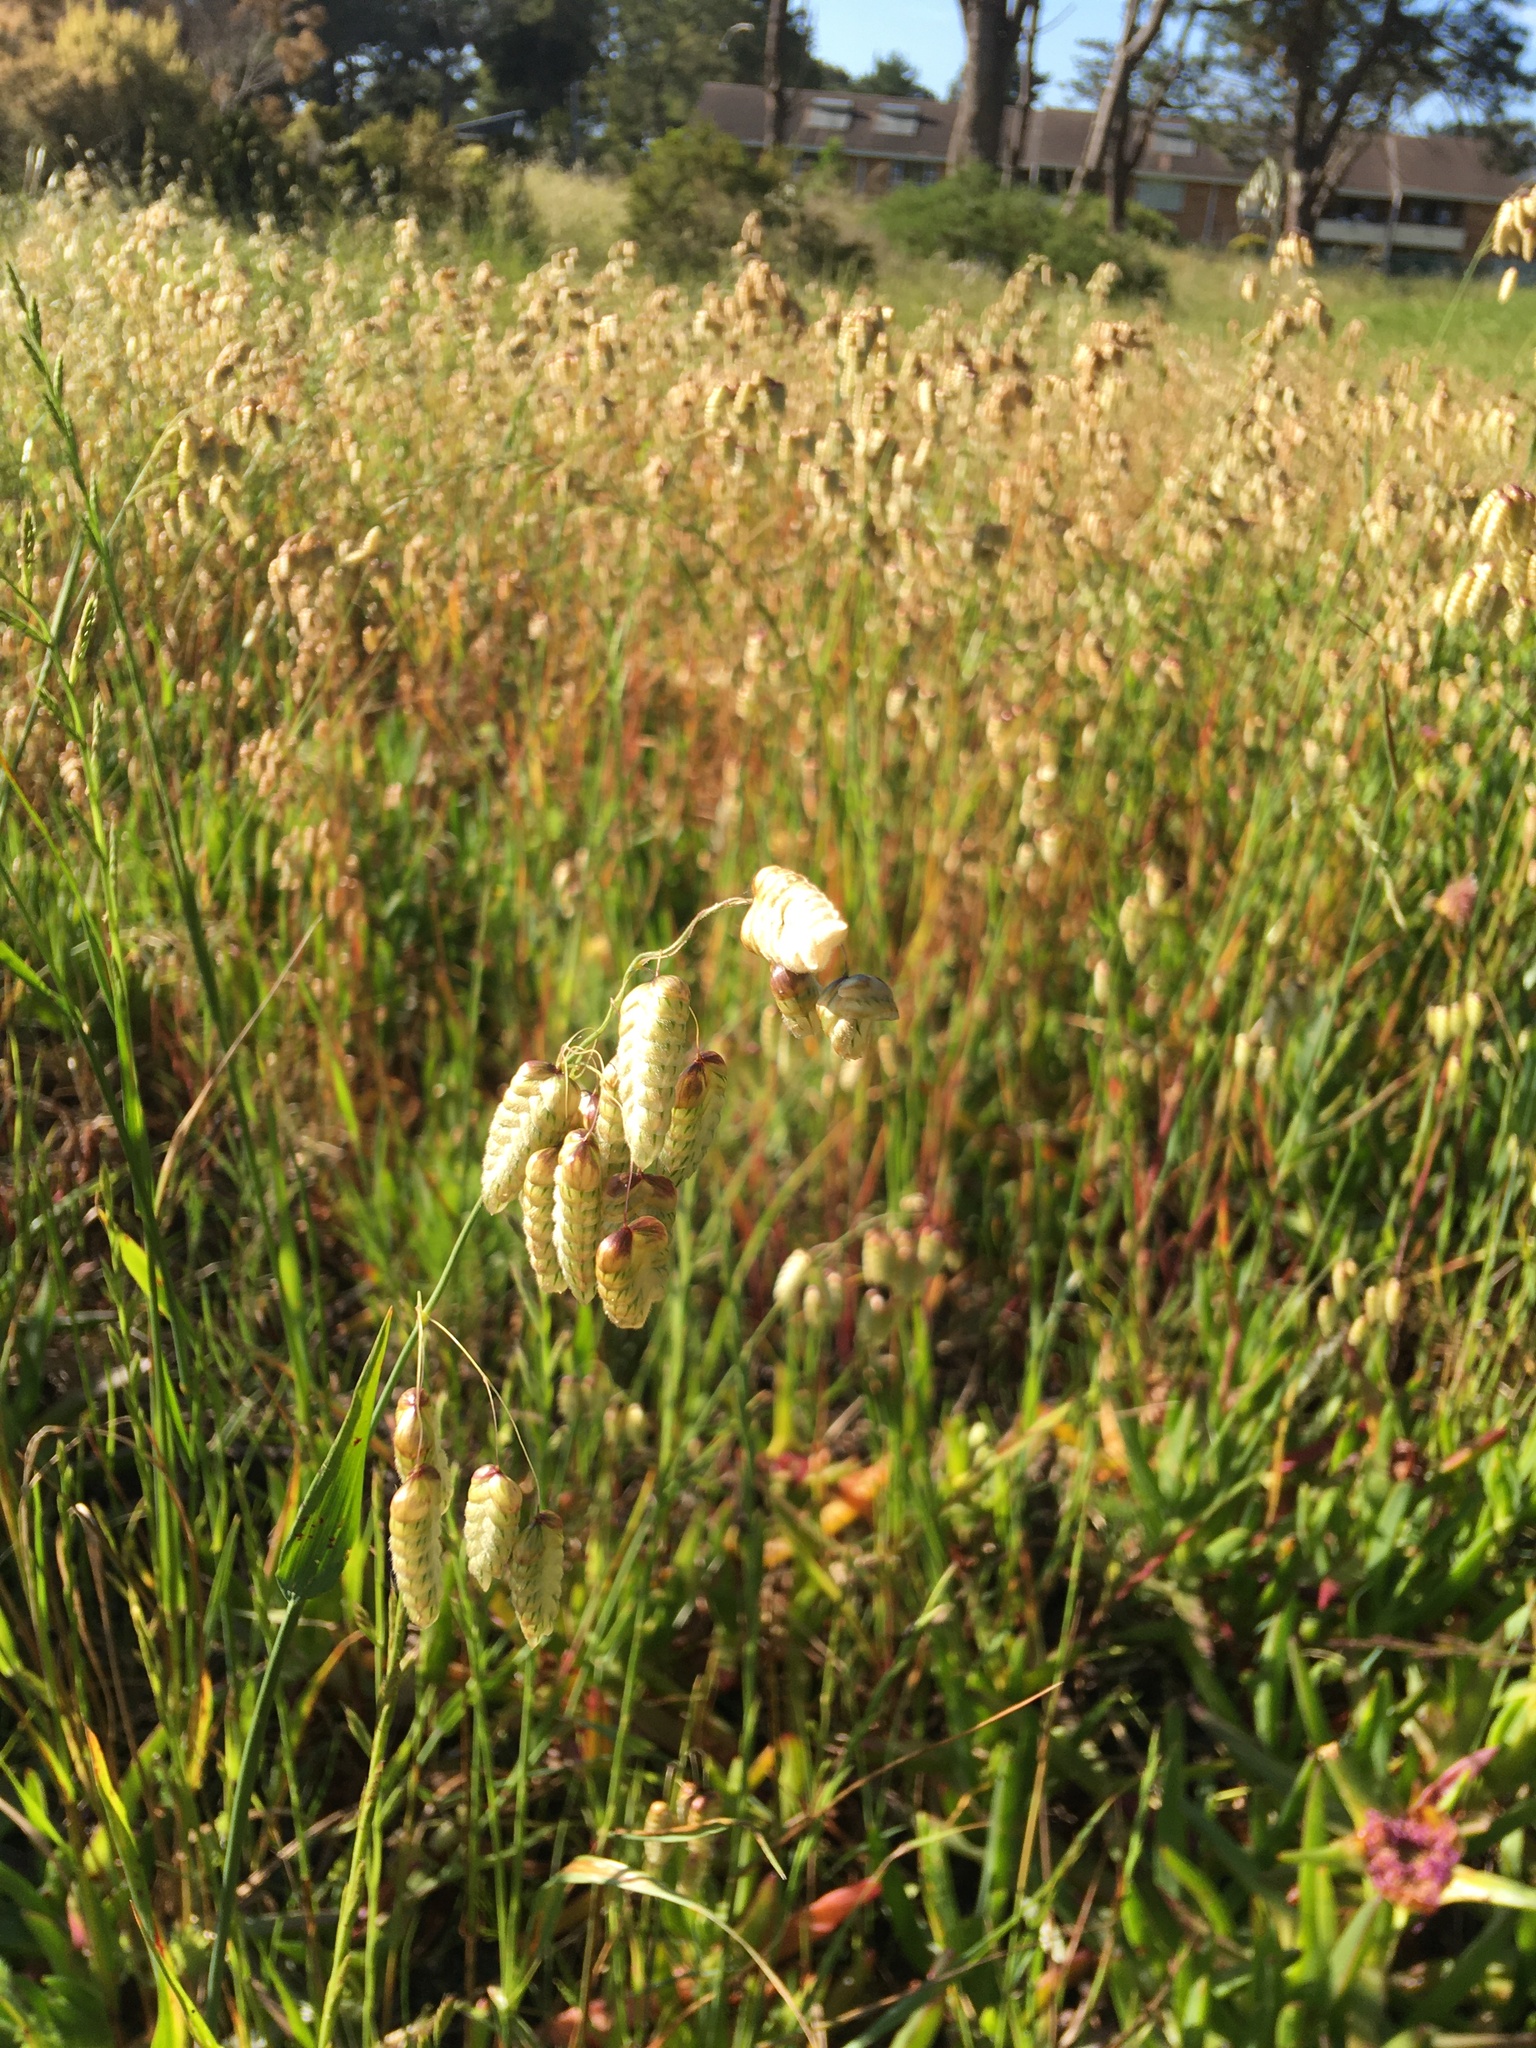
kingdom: Plantae
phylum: Tracheophyta
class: Liliopsida
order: Poales
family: Poaceae
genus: Briza
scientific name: Briza maxima
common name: Big quakinggrass
